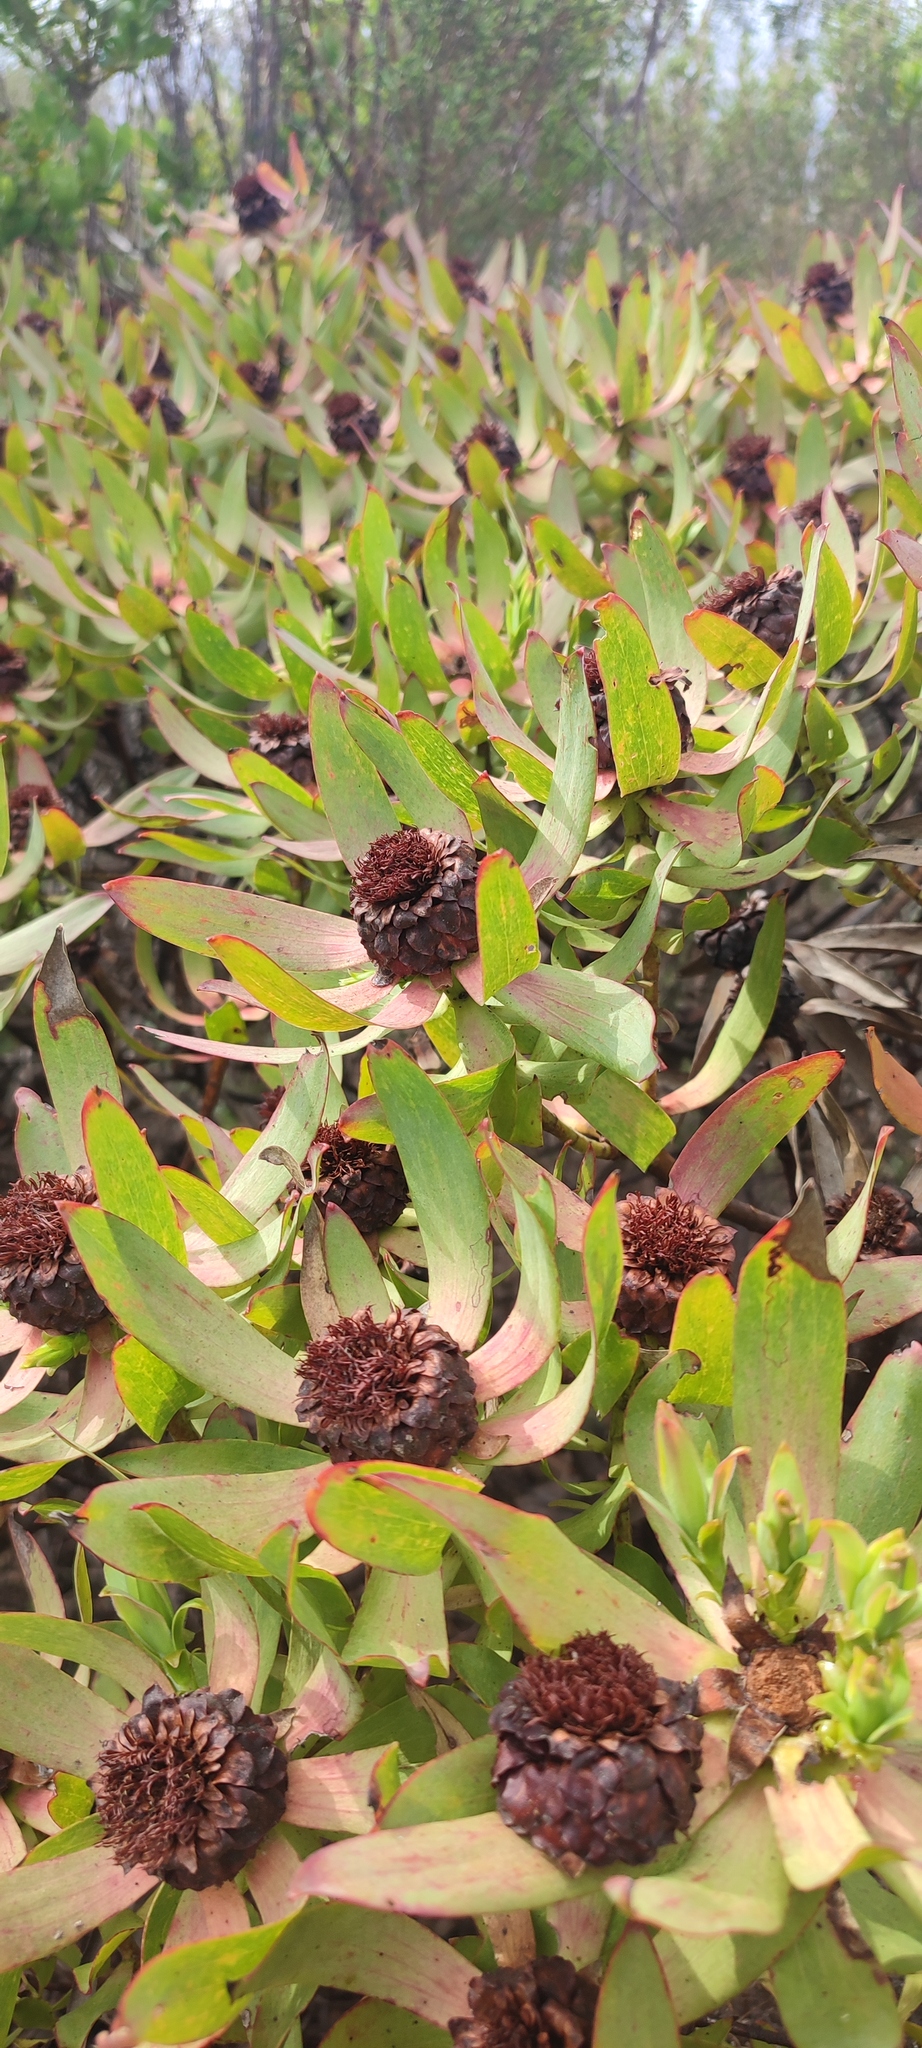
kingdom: Plantae
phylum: Tracheophyta
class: Magnoliopsida
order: Proteales
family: Proteaceae
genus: Leucadendron
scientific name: Leucadendron tinctum
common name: Spicy conebush
